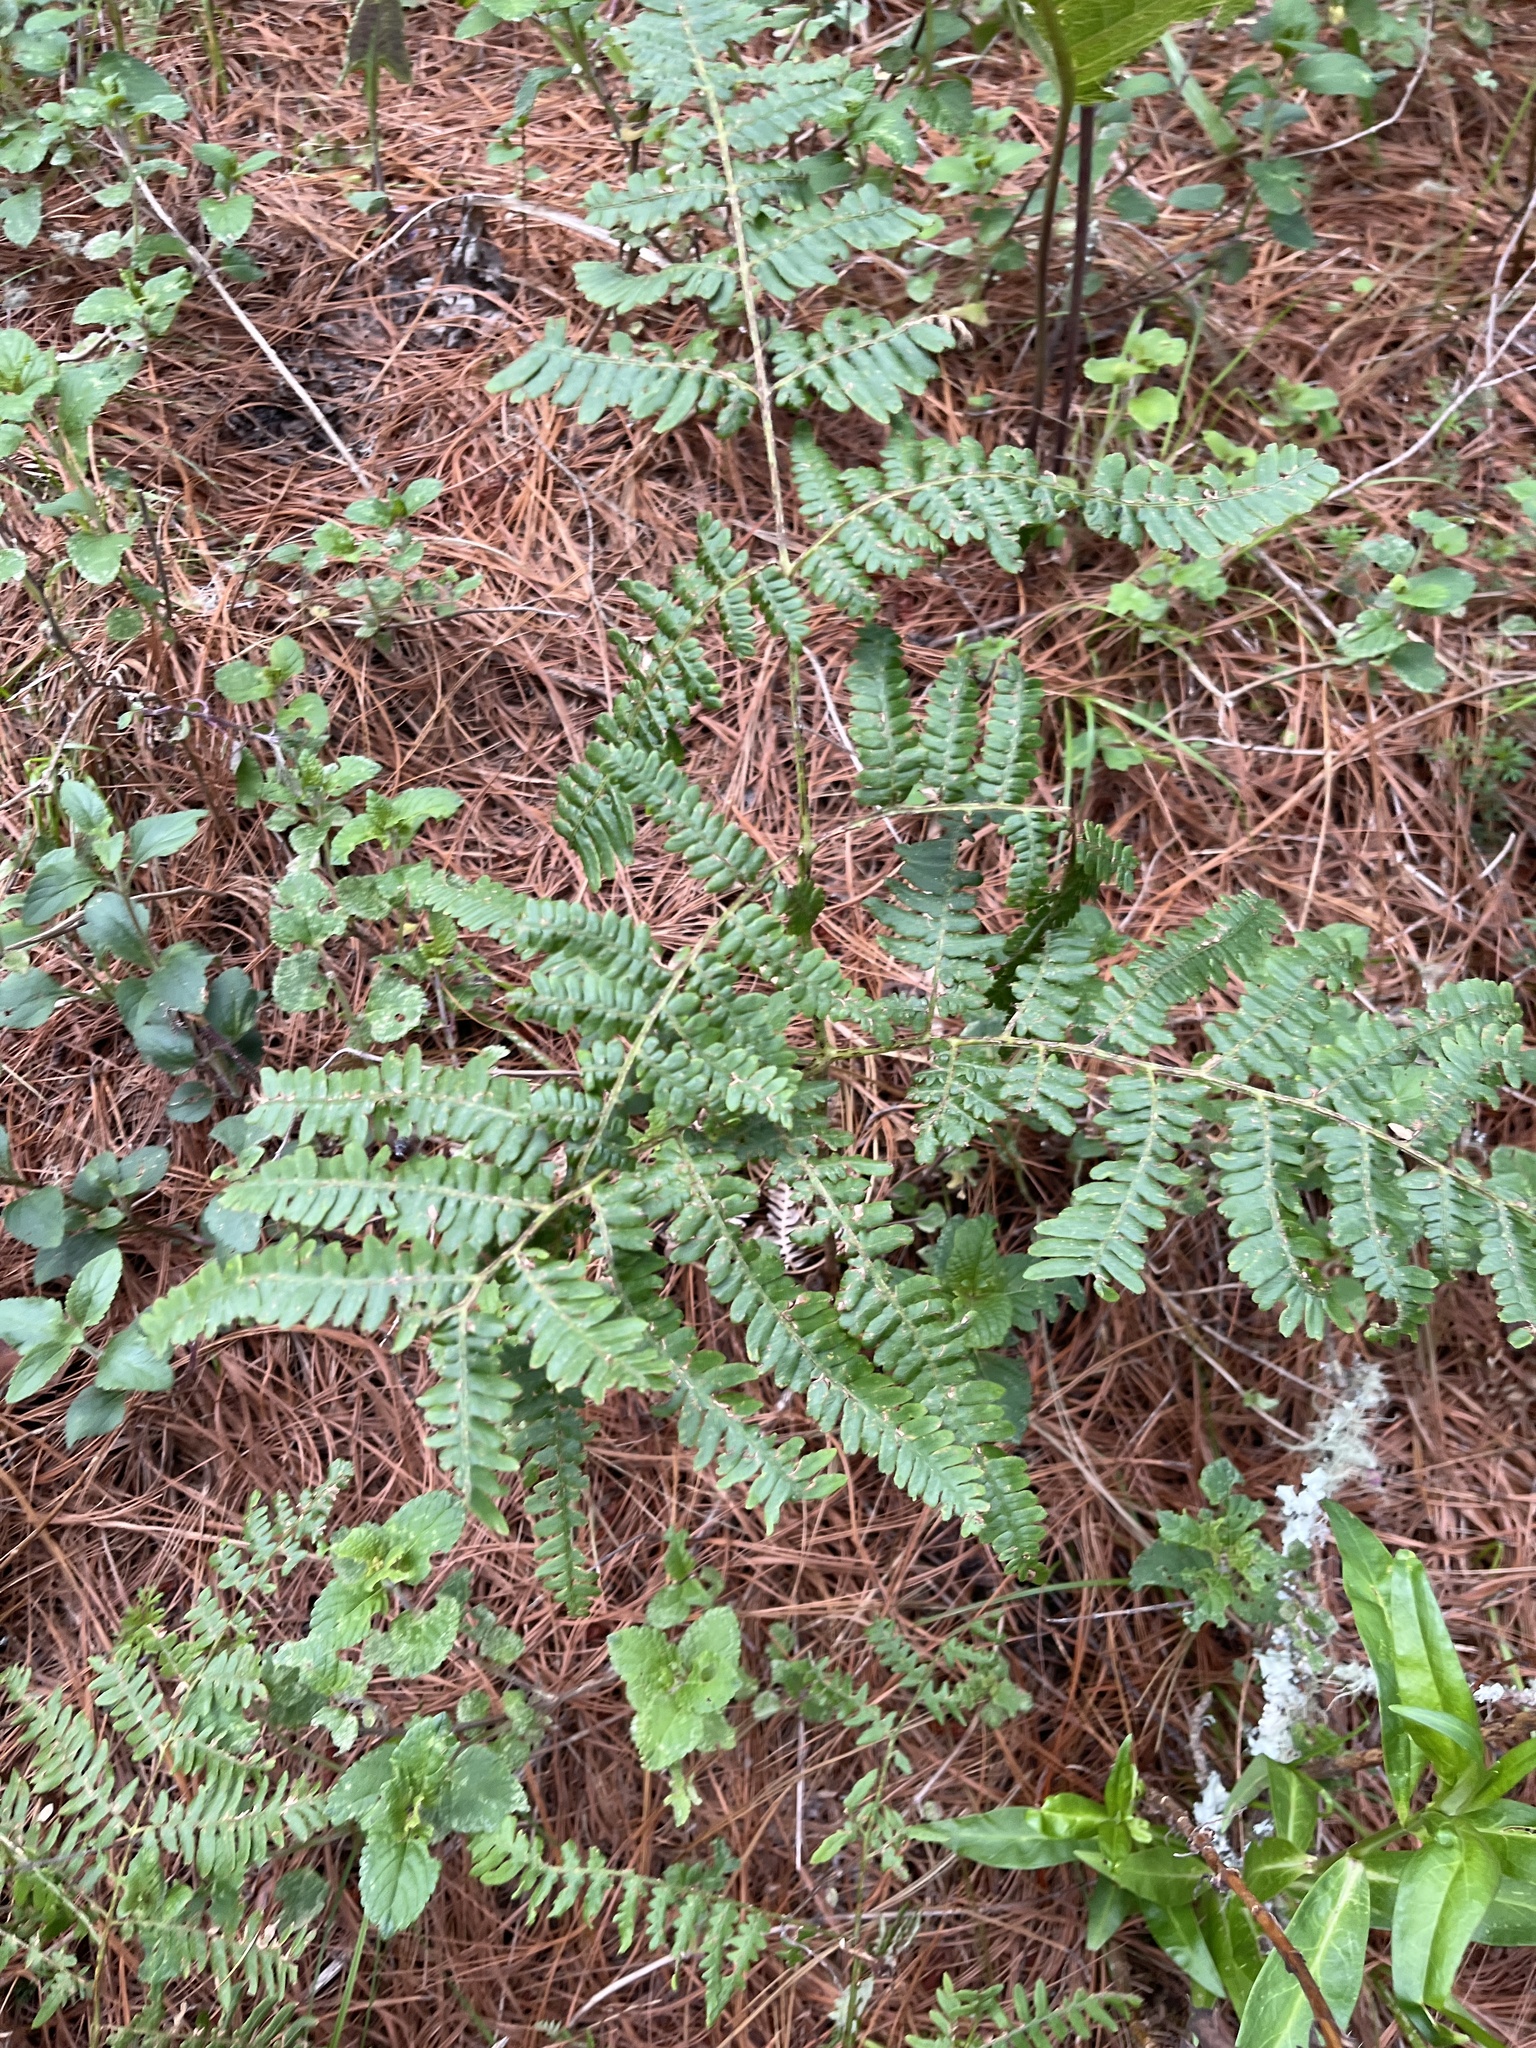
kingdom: Plantae
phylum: Tracheophyta
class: Polypodiopsida
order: Polypodiales
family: Dennstaedtiaceae
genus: Pteridium
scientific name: Pteridium aquilinum
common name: Bracken
